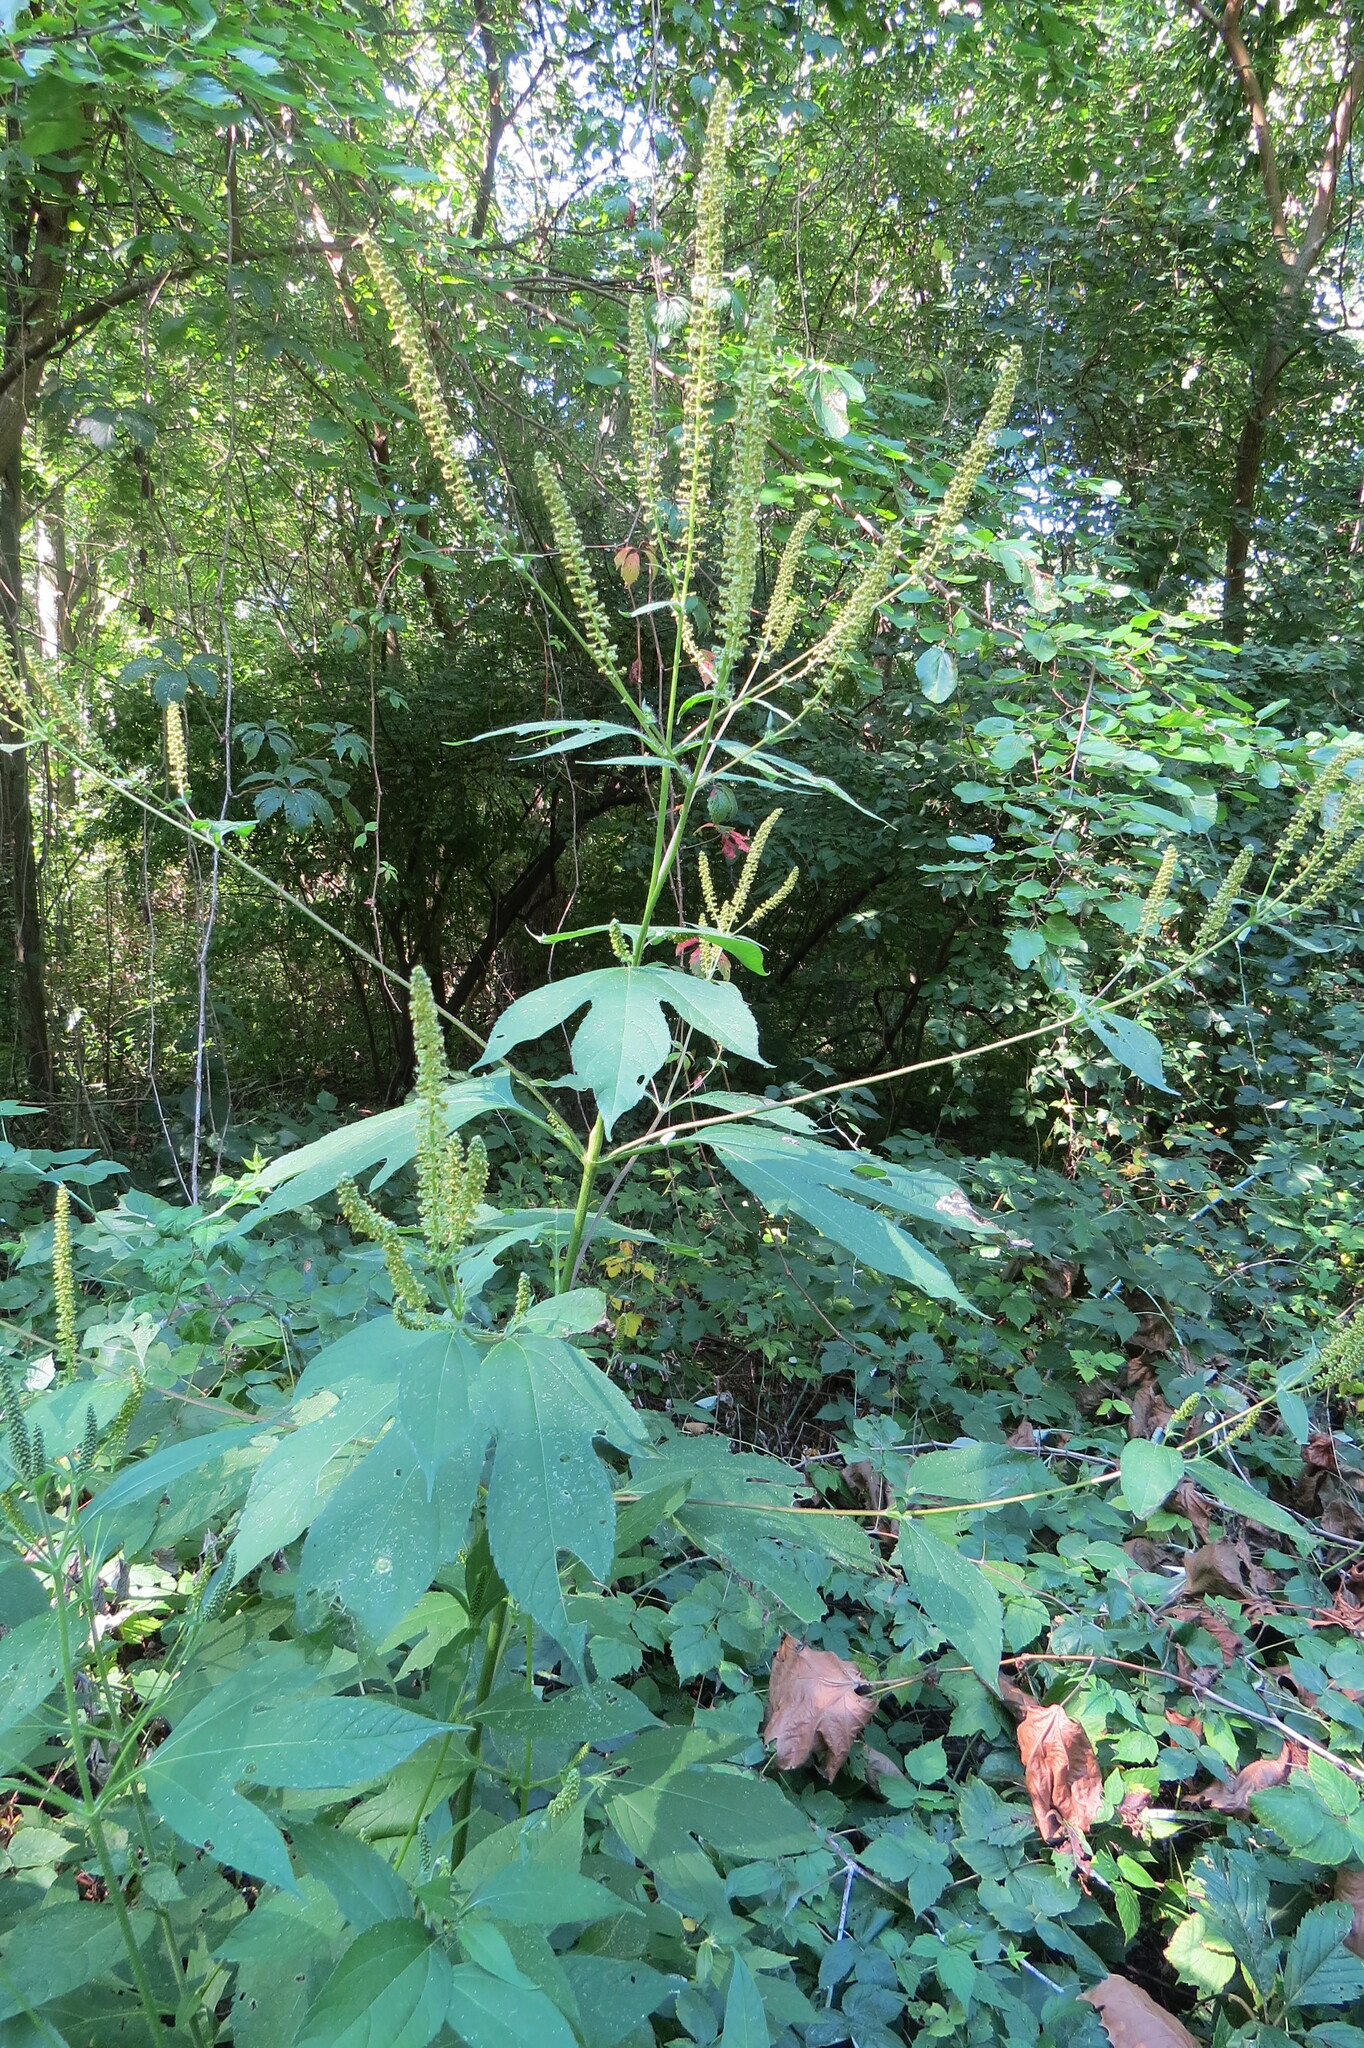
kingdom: Plantae
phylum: Tracheophyta
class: Magnoliopsida
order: Asterales
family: Asteraceae
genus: Ambrosia
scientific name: Ambrosia trifida
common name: Giant ragweed
